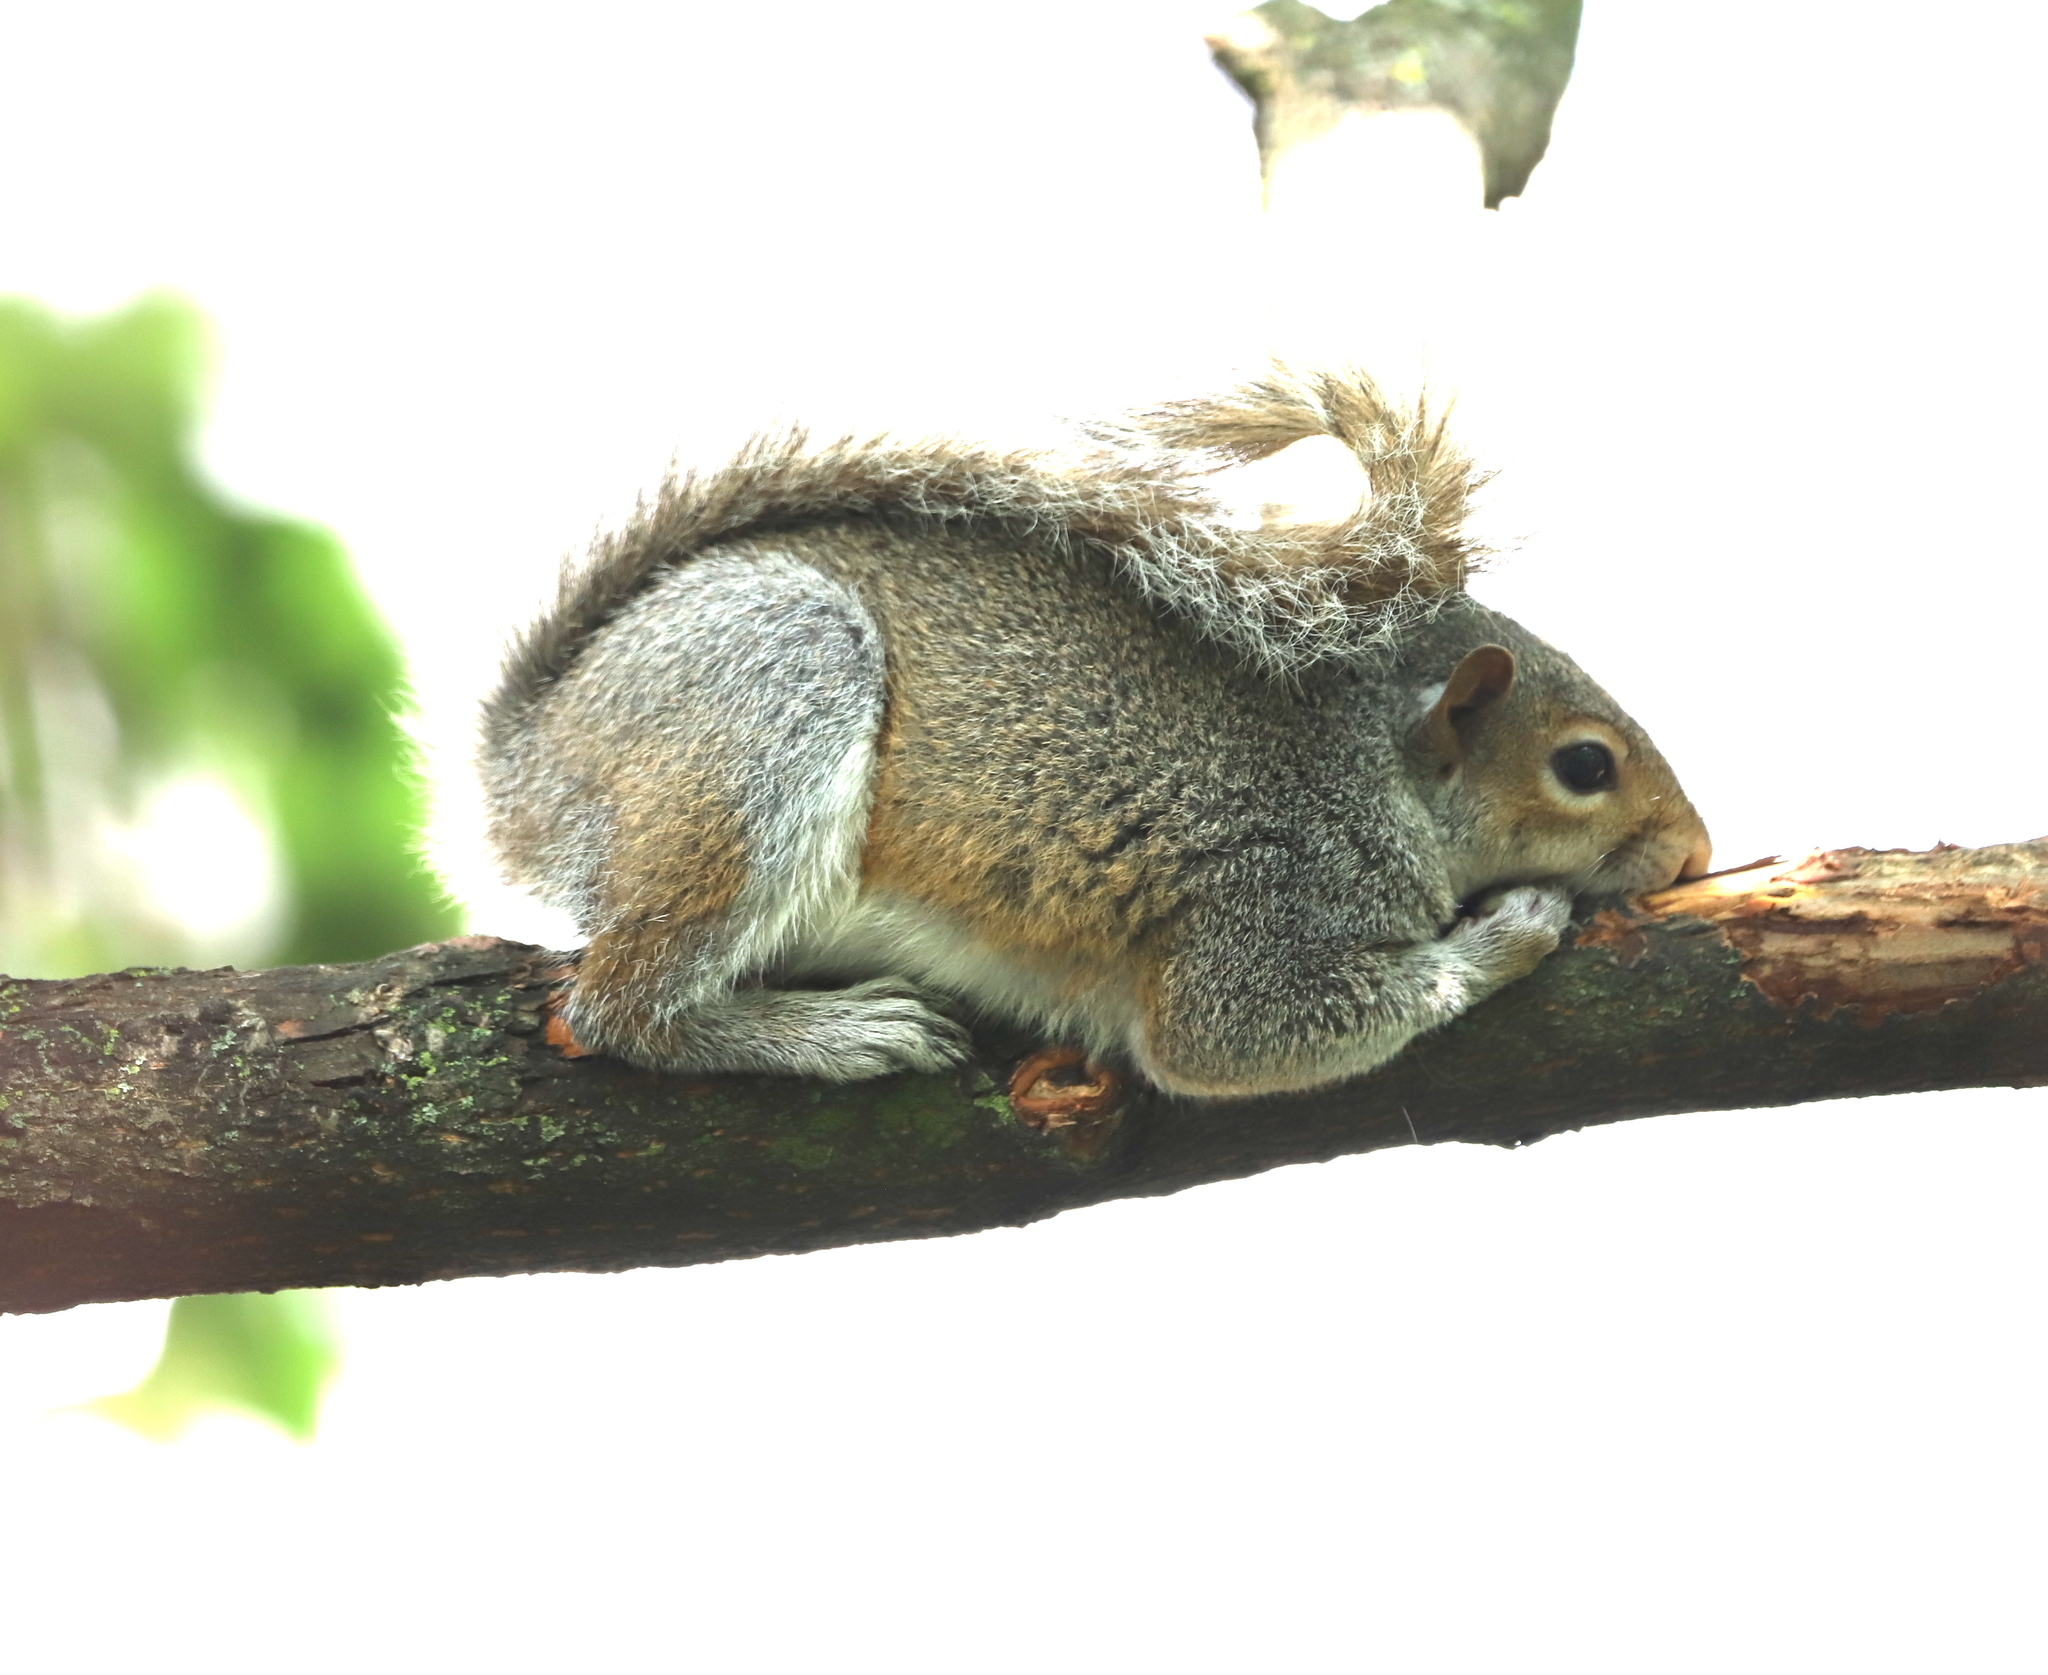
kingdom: Animalia
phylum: Chordata
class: Mammalia
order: Rodentia
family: Sciuridae
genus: Sciurus
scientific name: Sciurus carolinensis
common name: Eastern gray squirrel
